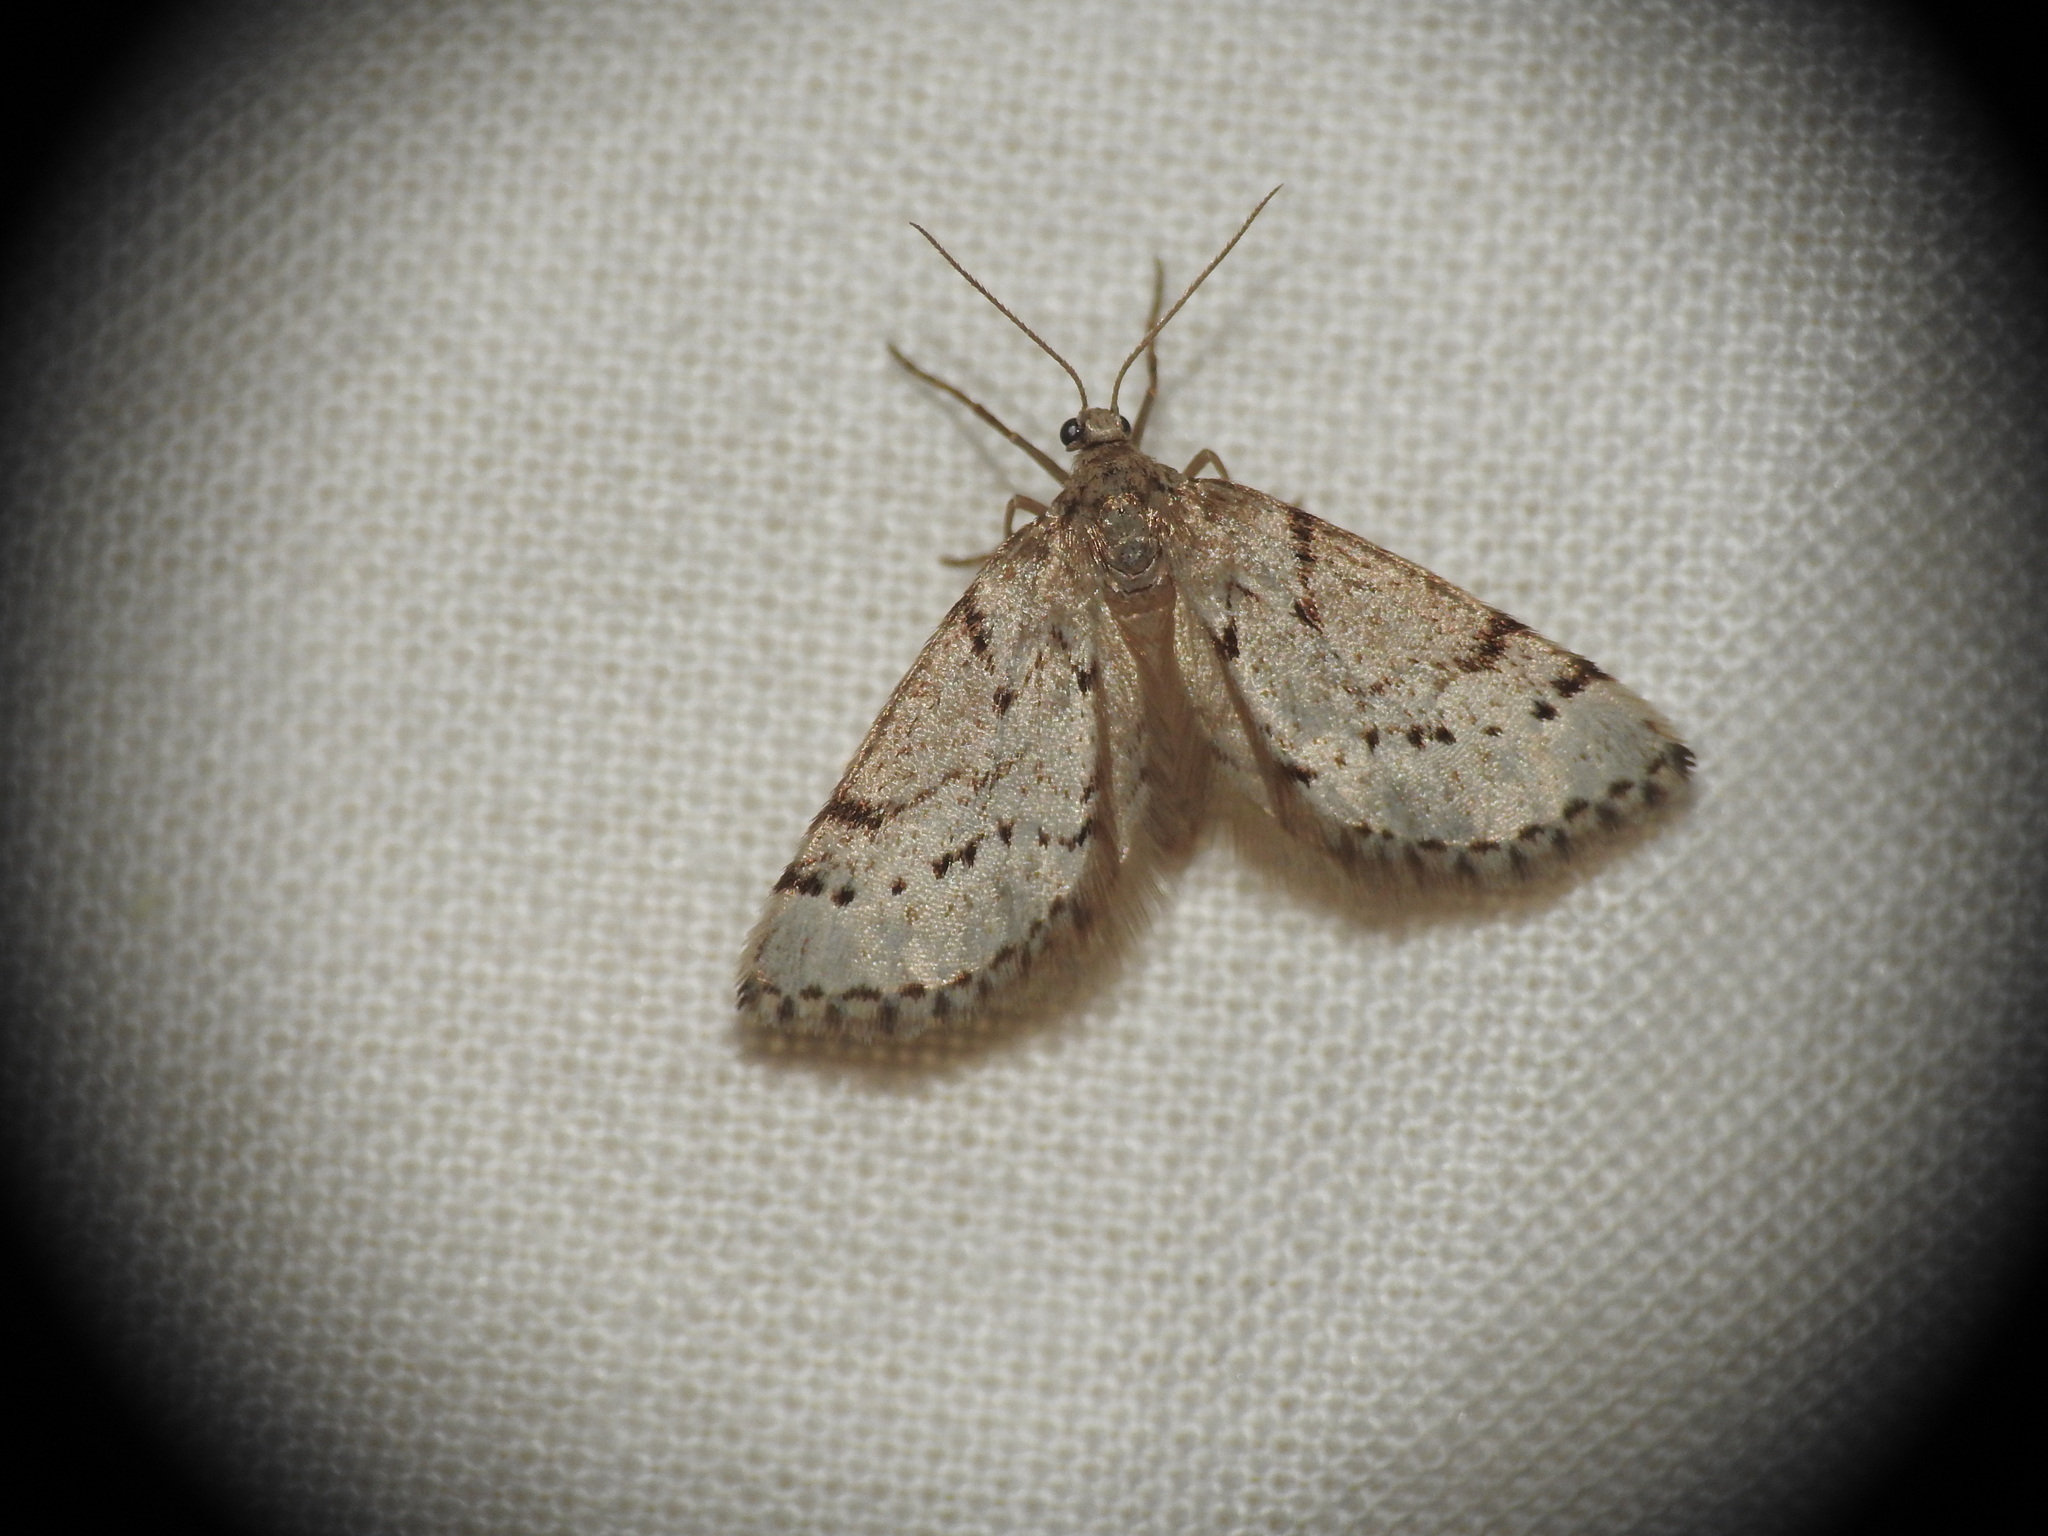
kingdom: Animalia
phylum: Arthropoda
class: Insecta
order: Lepidoptera
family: Geometridae
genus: Tephronia
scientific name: Tephronia oranaria
